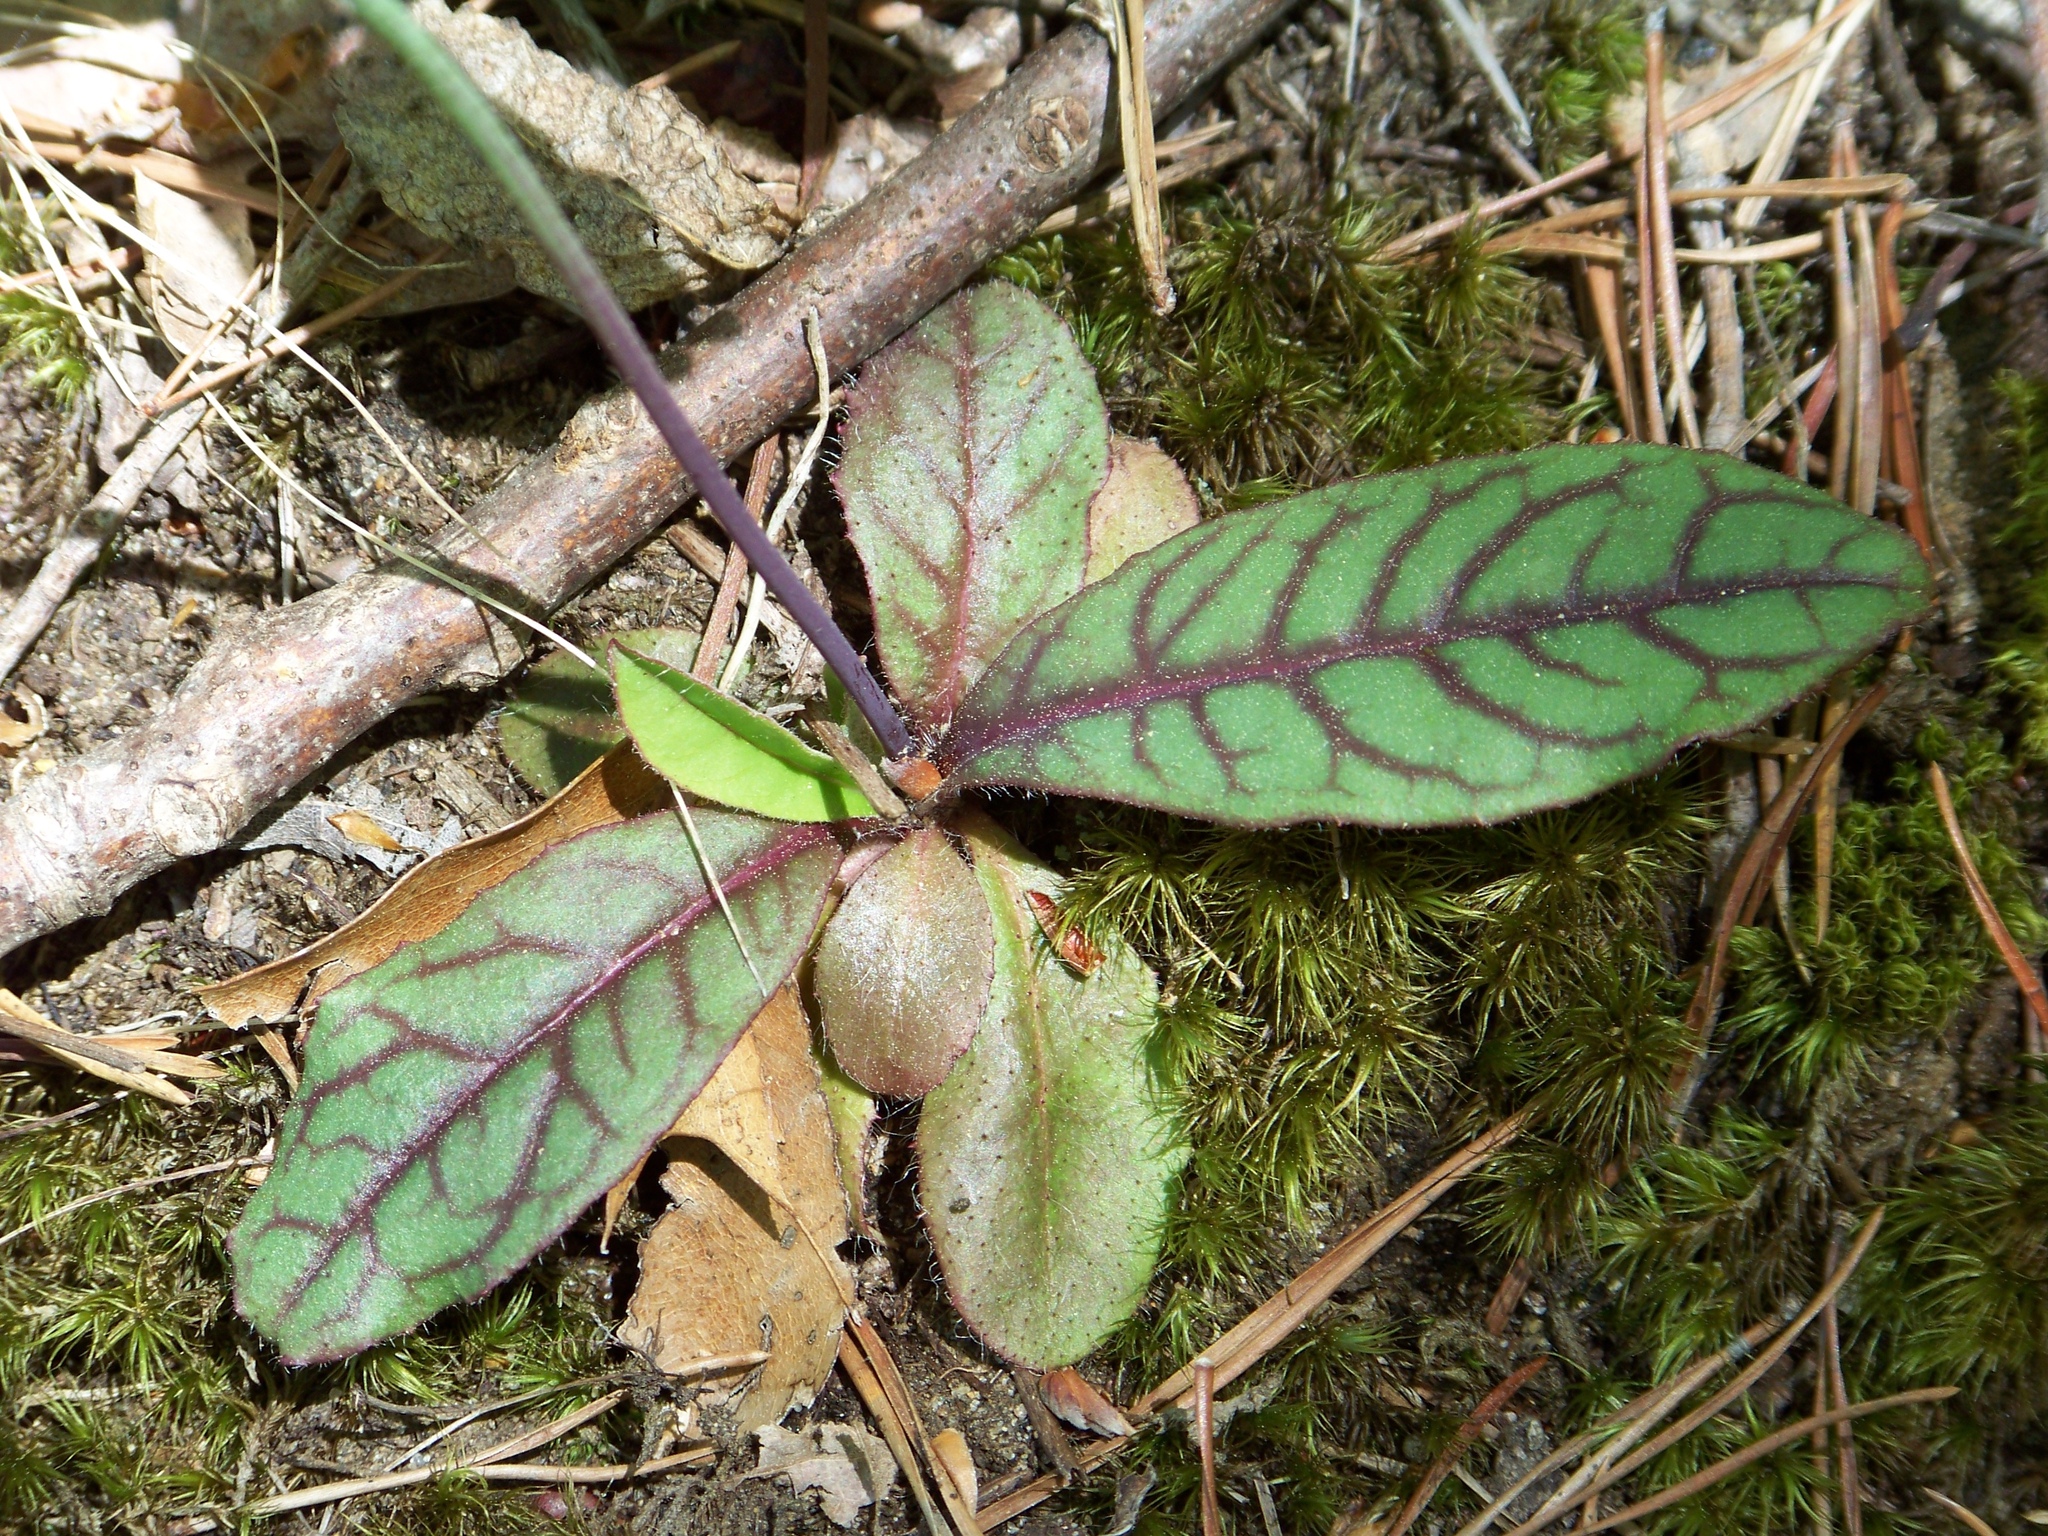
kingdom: Plantae
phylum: Tracheophyta
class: Magnoliopsida
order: Asterales
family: Asteraceae
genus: Hieracium
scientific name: Hieracium venosum
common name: Rattlesnake hawkweed
